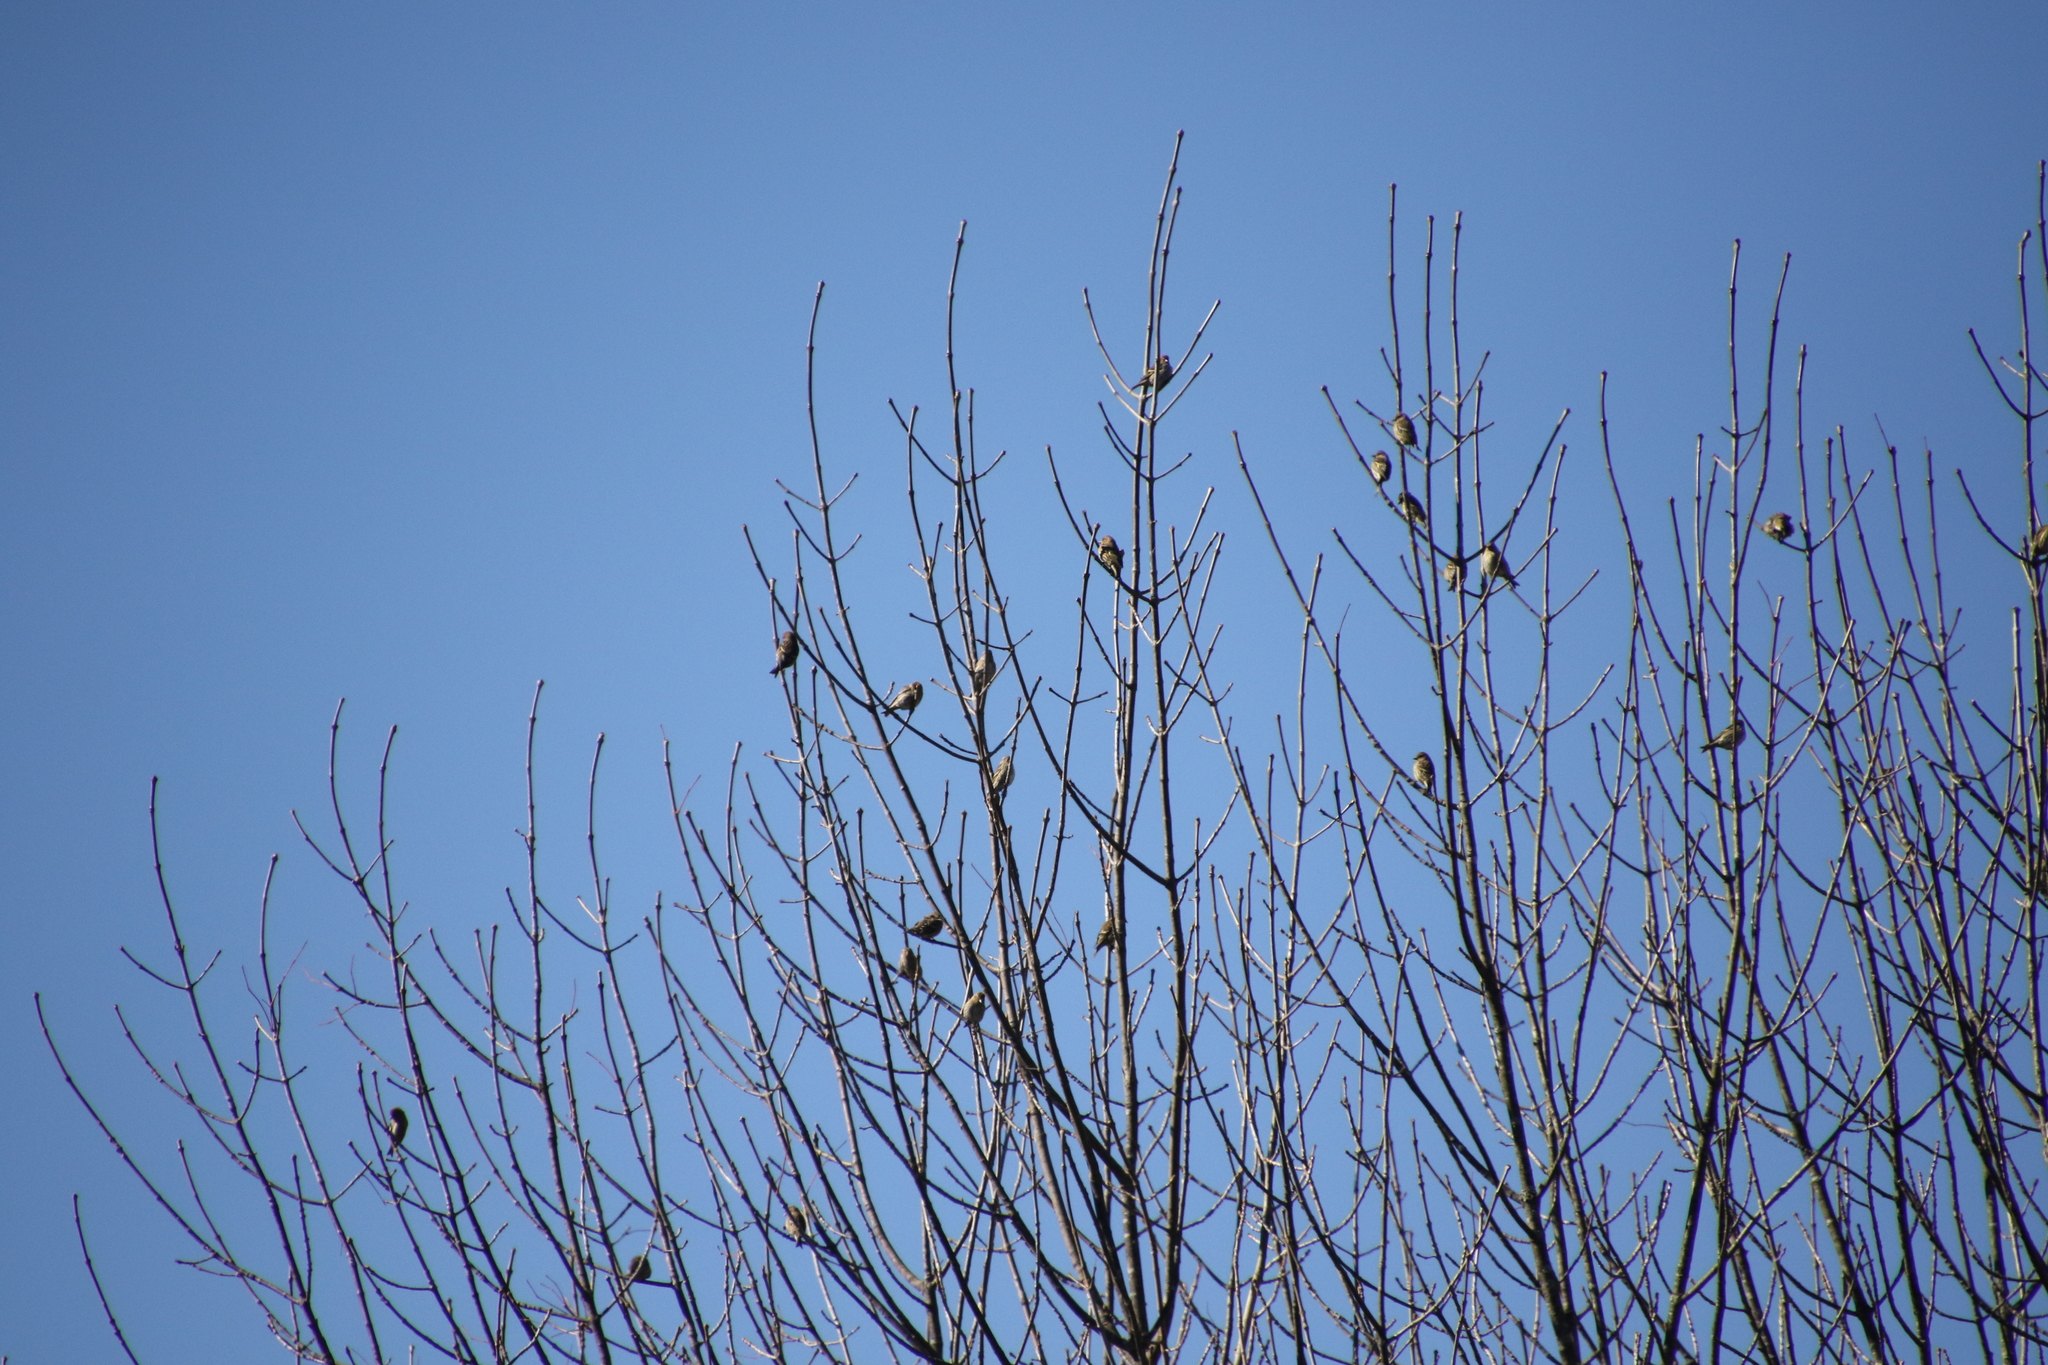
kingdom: Animalia
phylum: Chordata
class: Aves
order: Passeriformes
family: Fringillidae
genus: Spinus
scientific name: Spinus pinus
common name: Pine siskin
